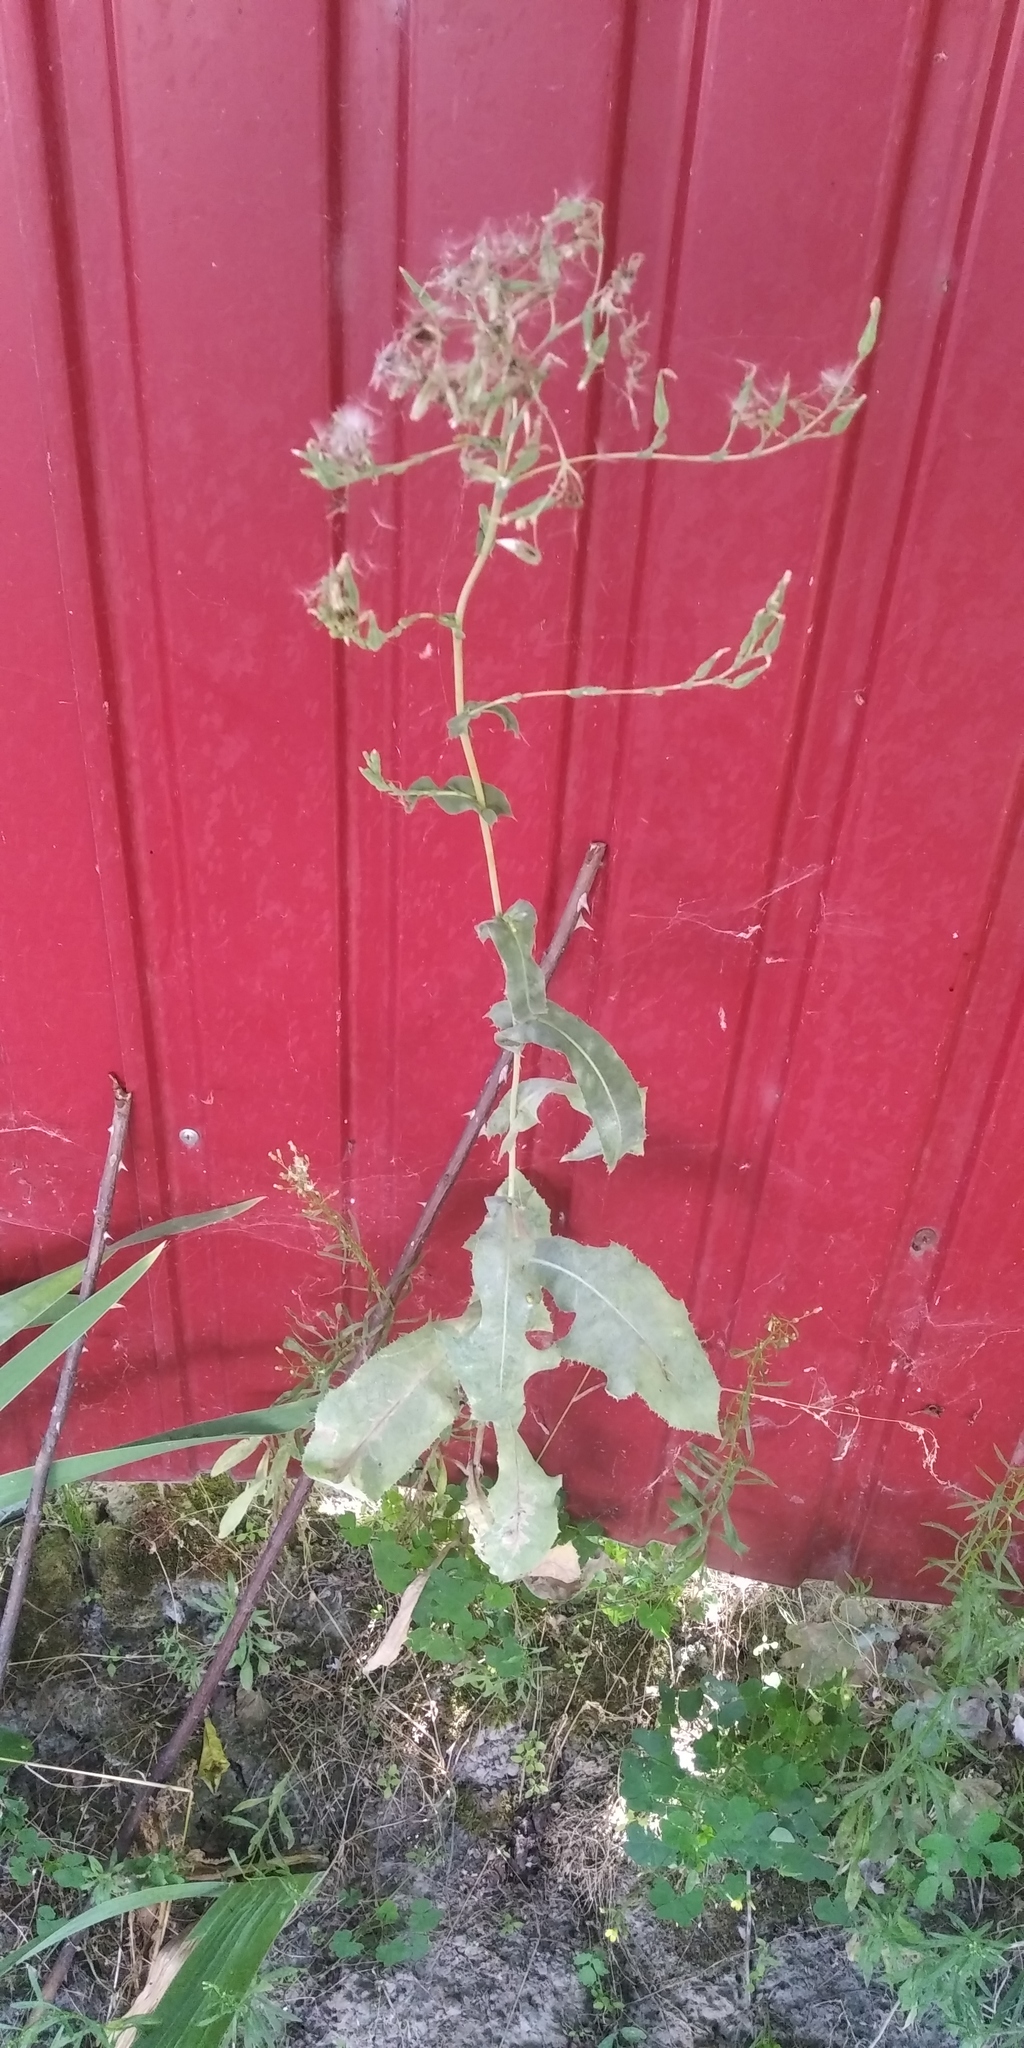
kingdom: Plantae
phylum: Tracheophyta
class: Magnoliopsida
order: Asterales
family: Asteraceae
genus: Lactuca
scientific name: Lactuca serriola
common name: Prickly lettuce
